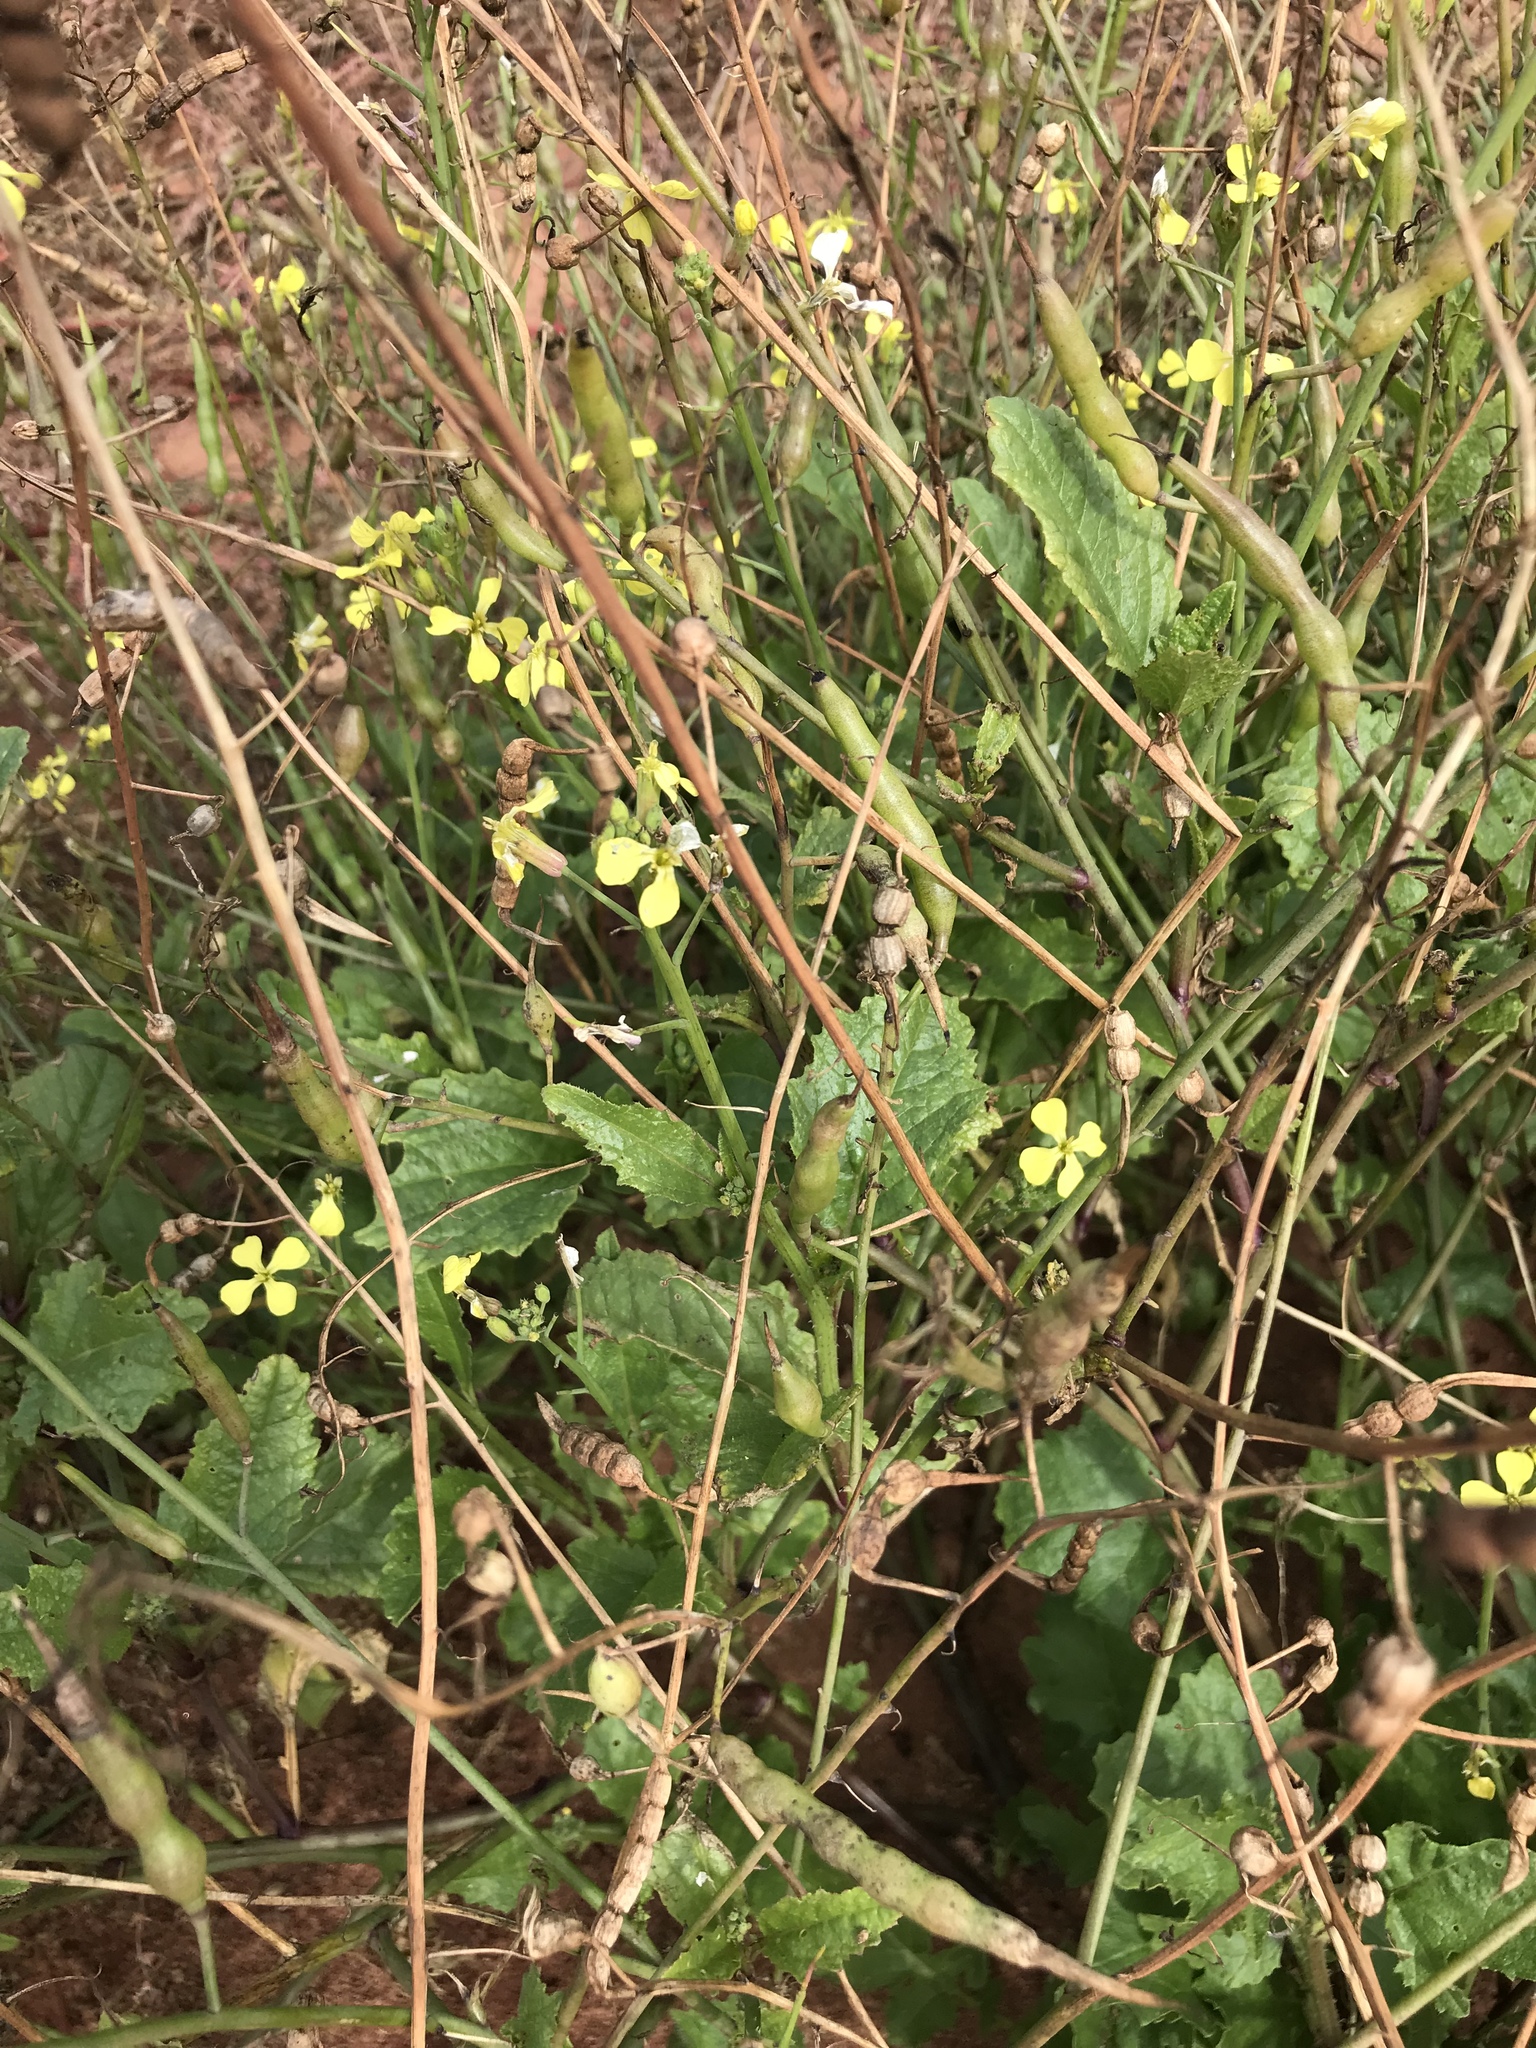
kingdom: Plantae
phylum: Tracheophyta
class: Magnoliopsida
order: Brassicales
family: Brassicaceae
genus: Raphanus
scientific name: Raphanus raphanistrum
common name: Wild radish
